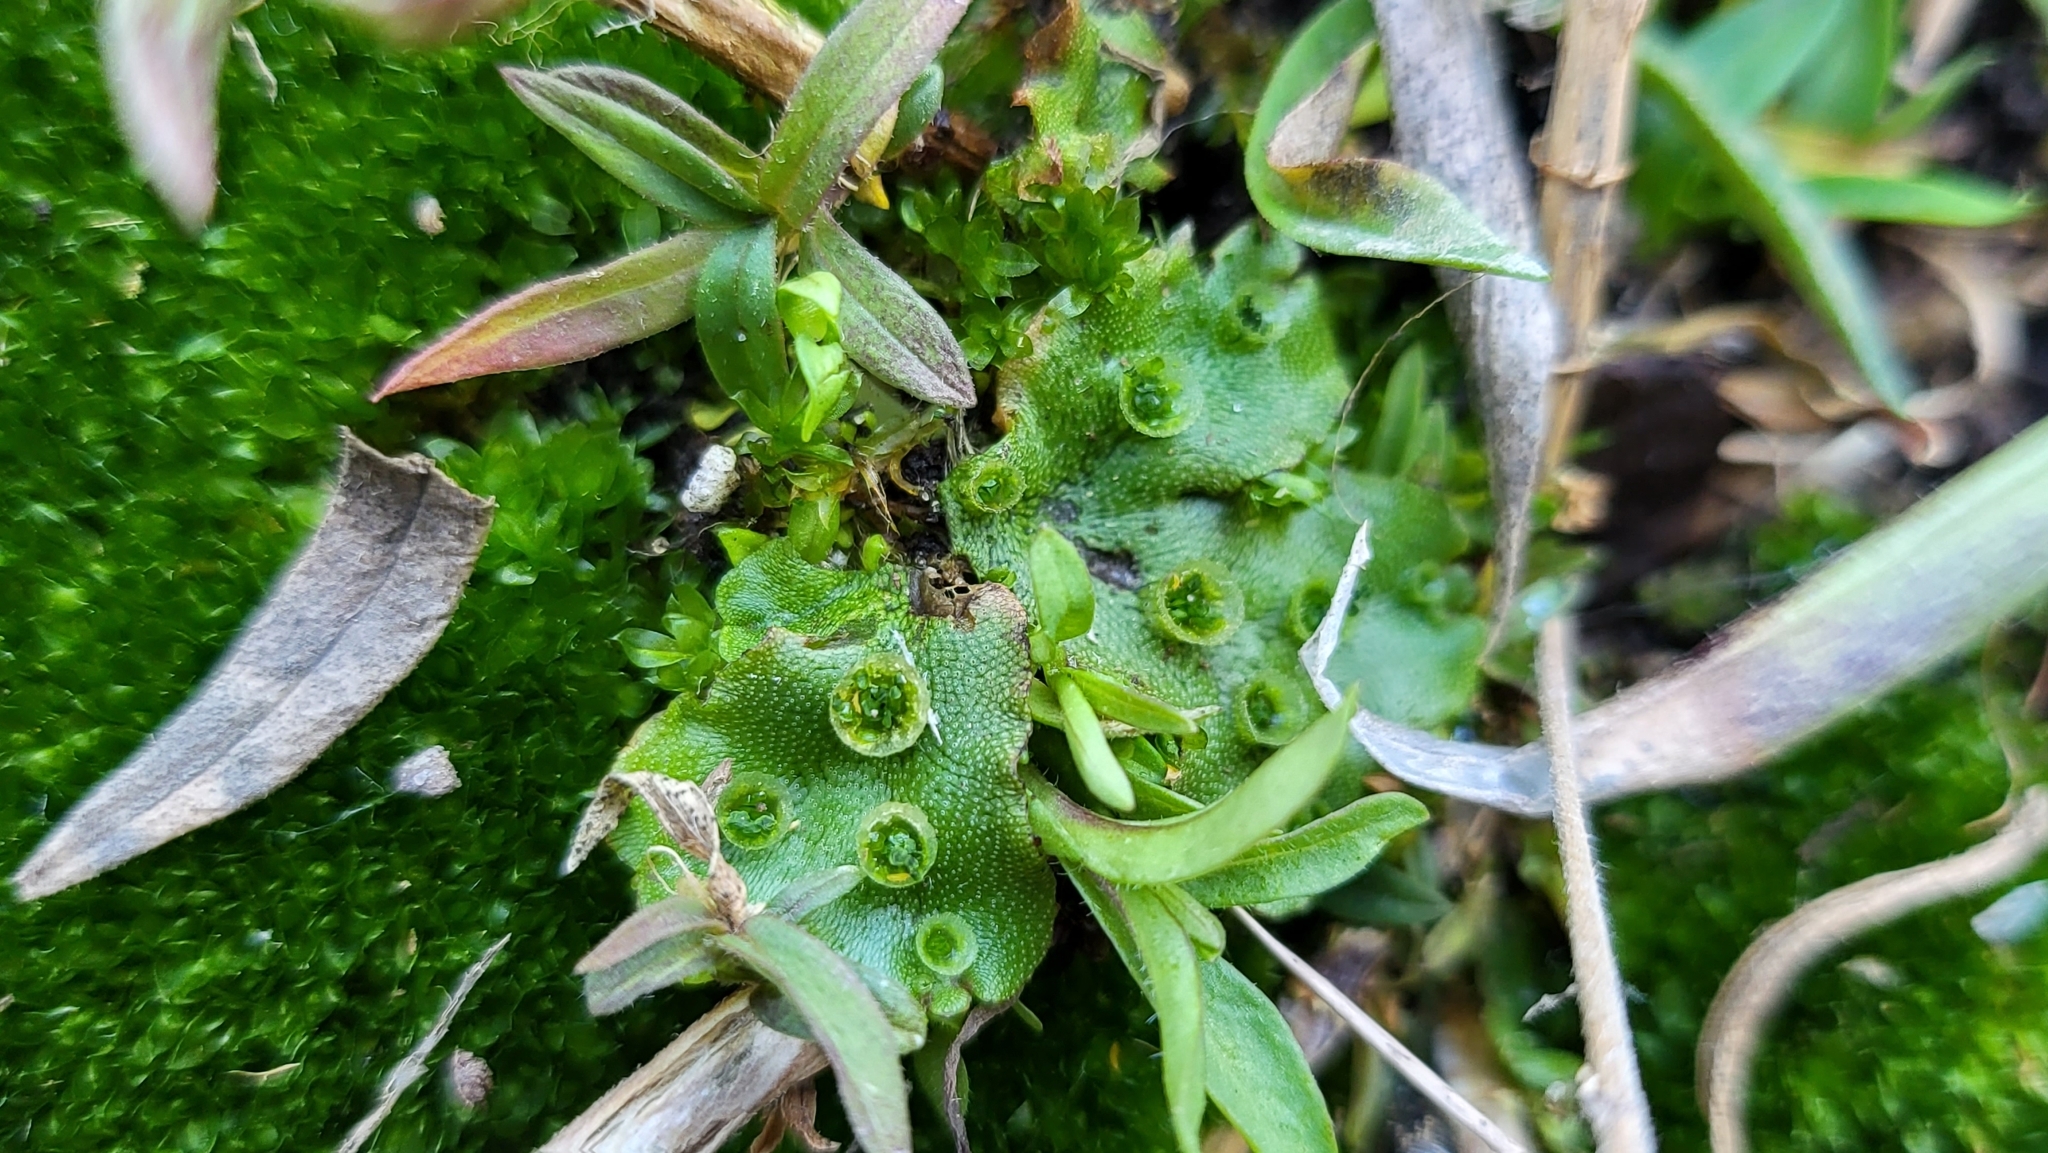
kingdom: Plantae
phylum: Marchantiophyta
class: Marchantiopsida
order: Marchantiales
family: Marchantiaceae
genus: Marchantia
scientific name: Marchantia polymorpha
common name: Common liverwort
